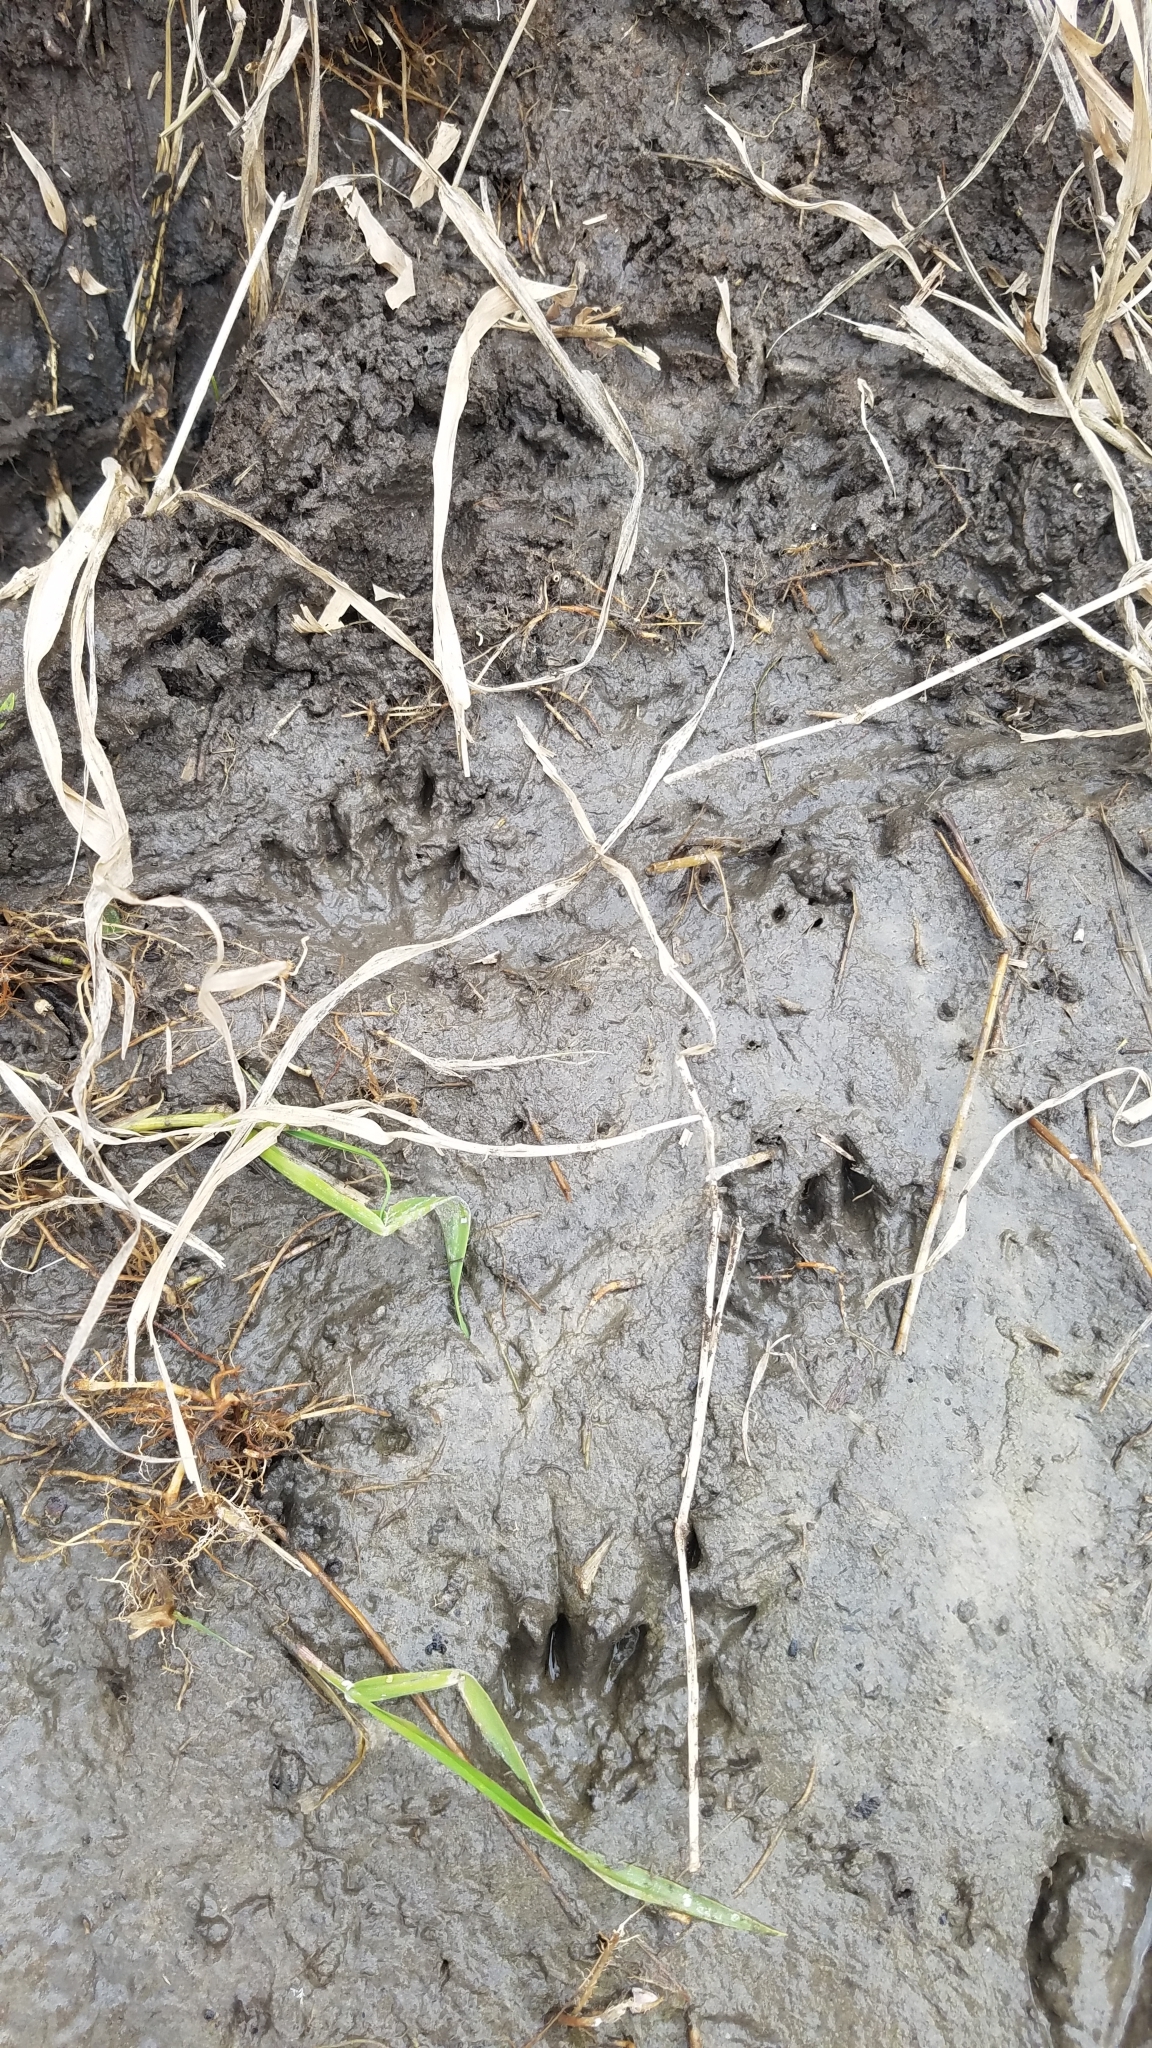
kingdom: Animalia
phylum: Chordata
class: Mammalia
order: Rodentia
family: Cricetidae
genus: Ondatra
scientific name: Ondatra zibethicus
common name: Muskrat
